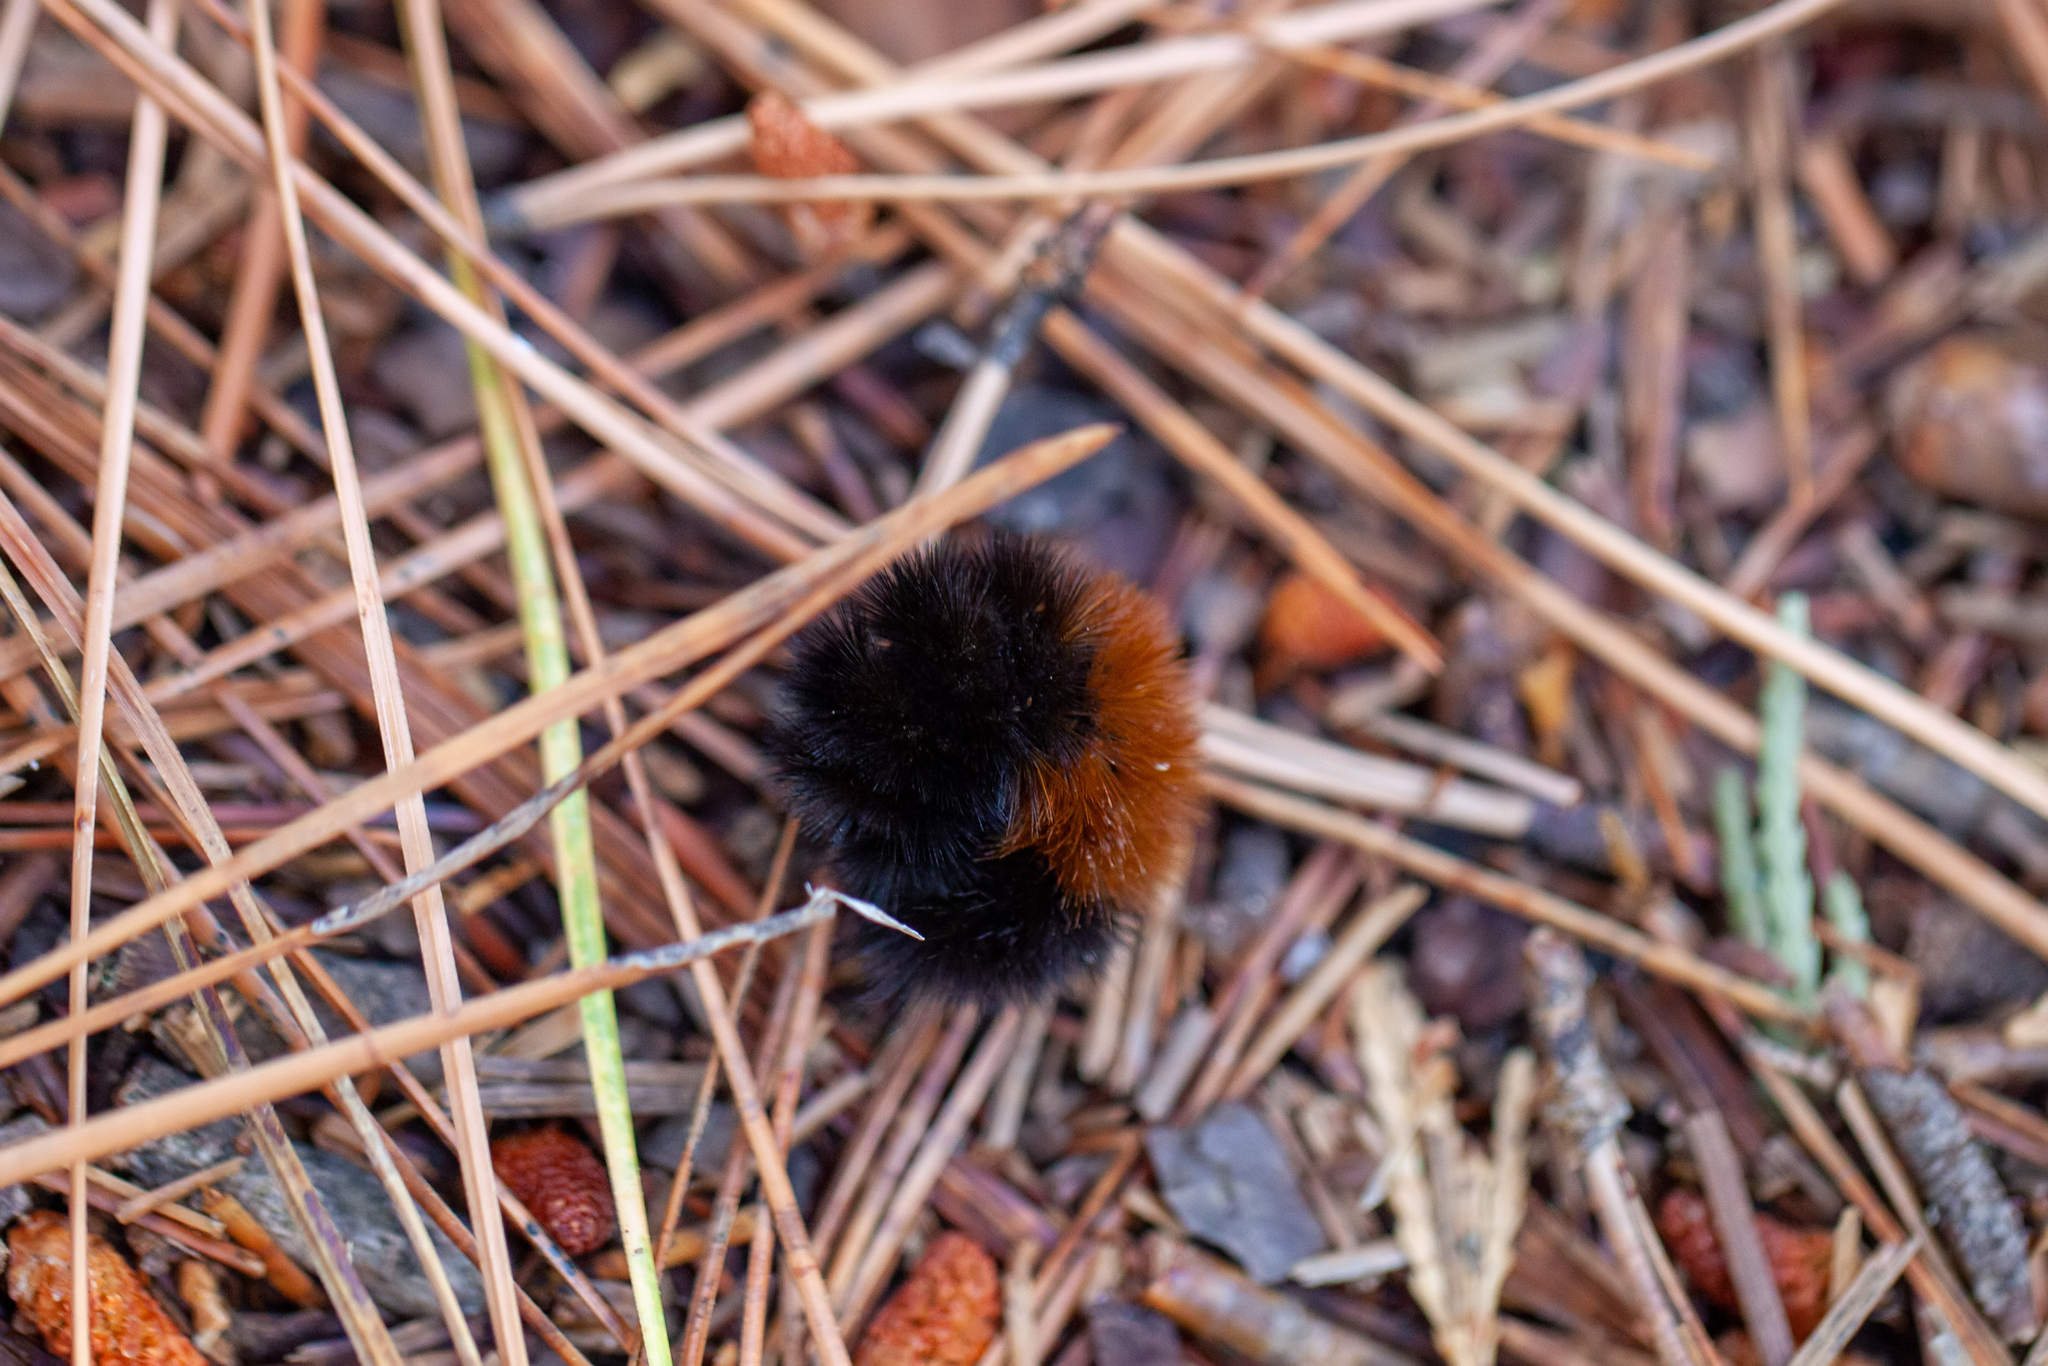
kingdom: Animalia
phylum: Arthropoda
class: Insecta
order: Lepidoptera
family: Erebidae
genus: Pyrrharctia
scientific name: Pyrrharctia isabella
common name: Isabella tiger moth
